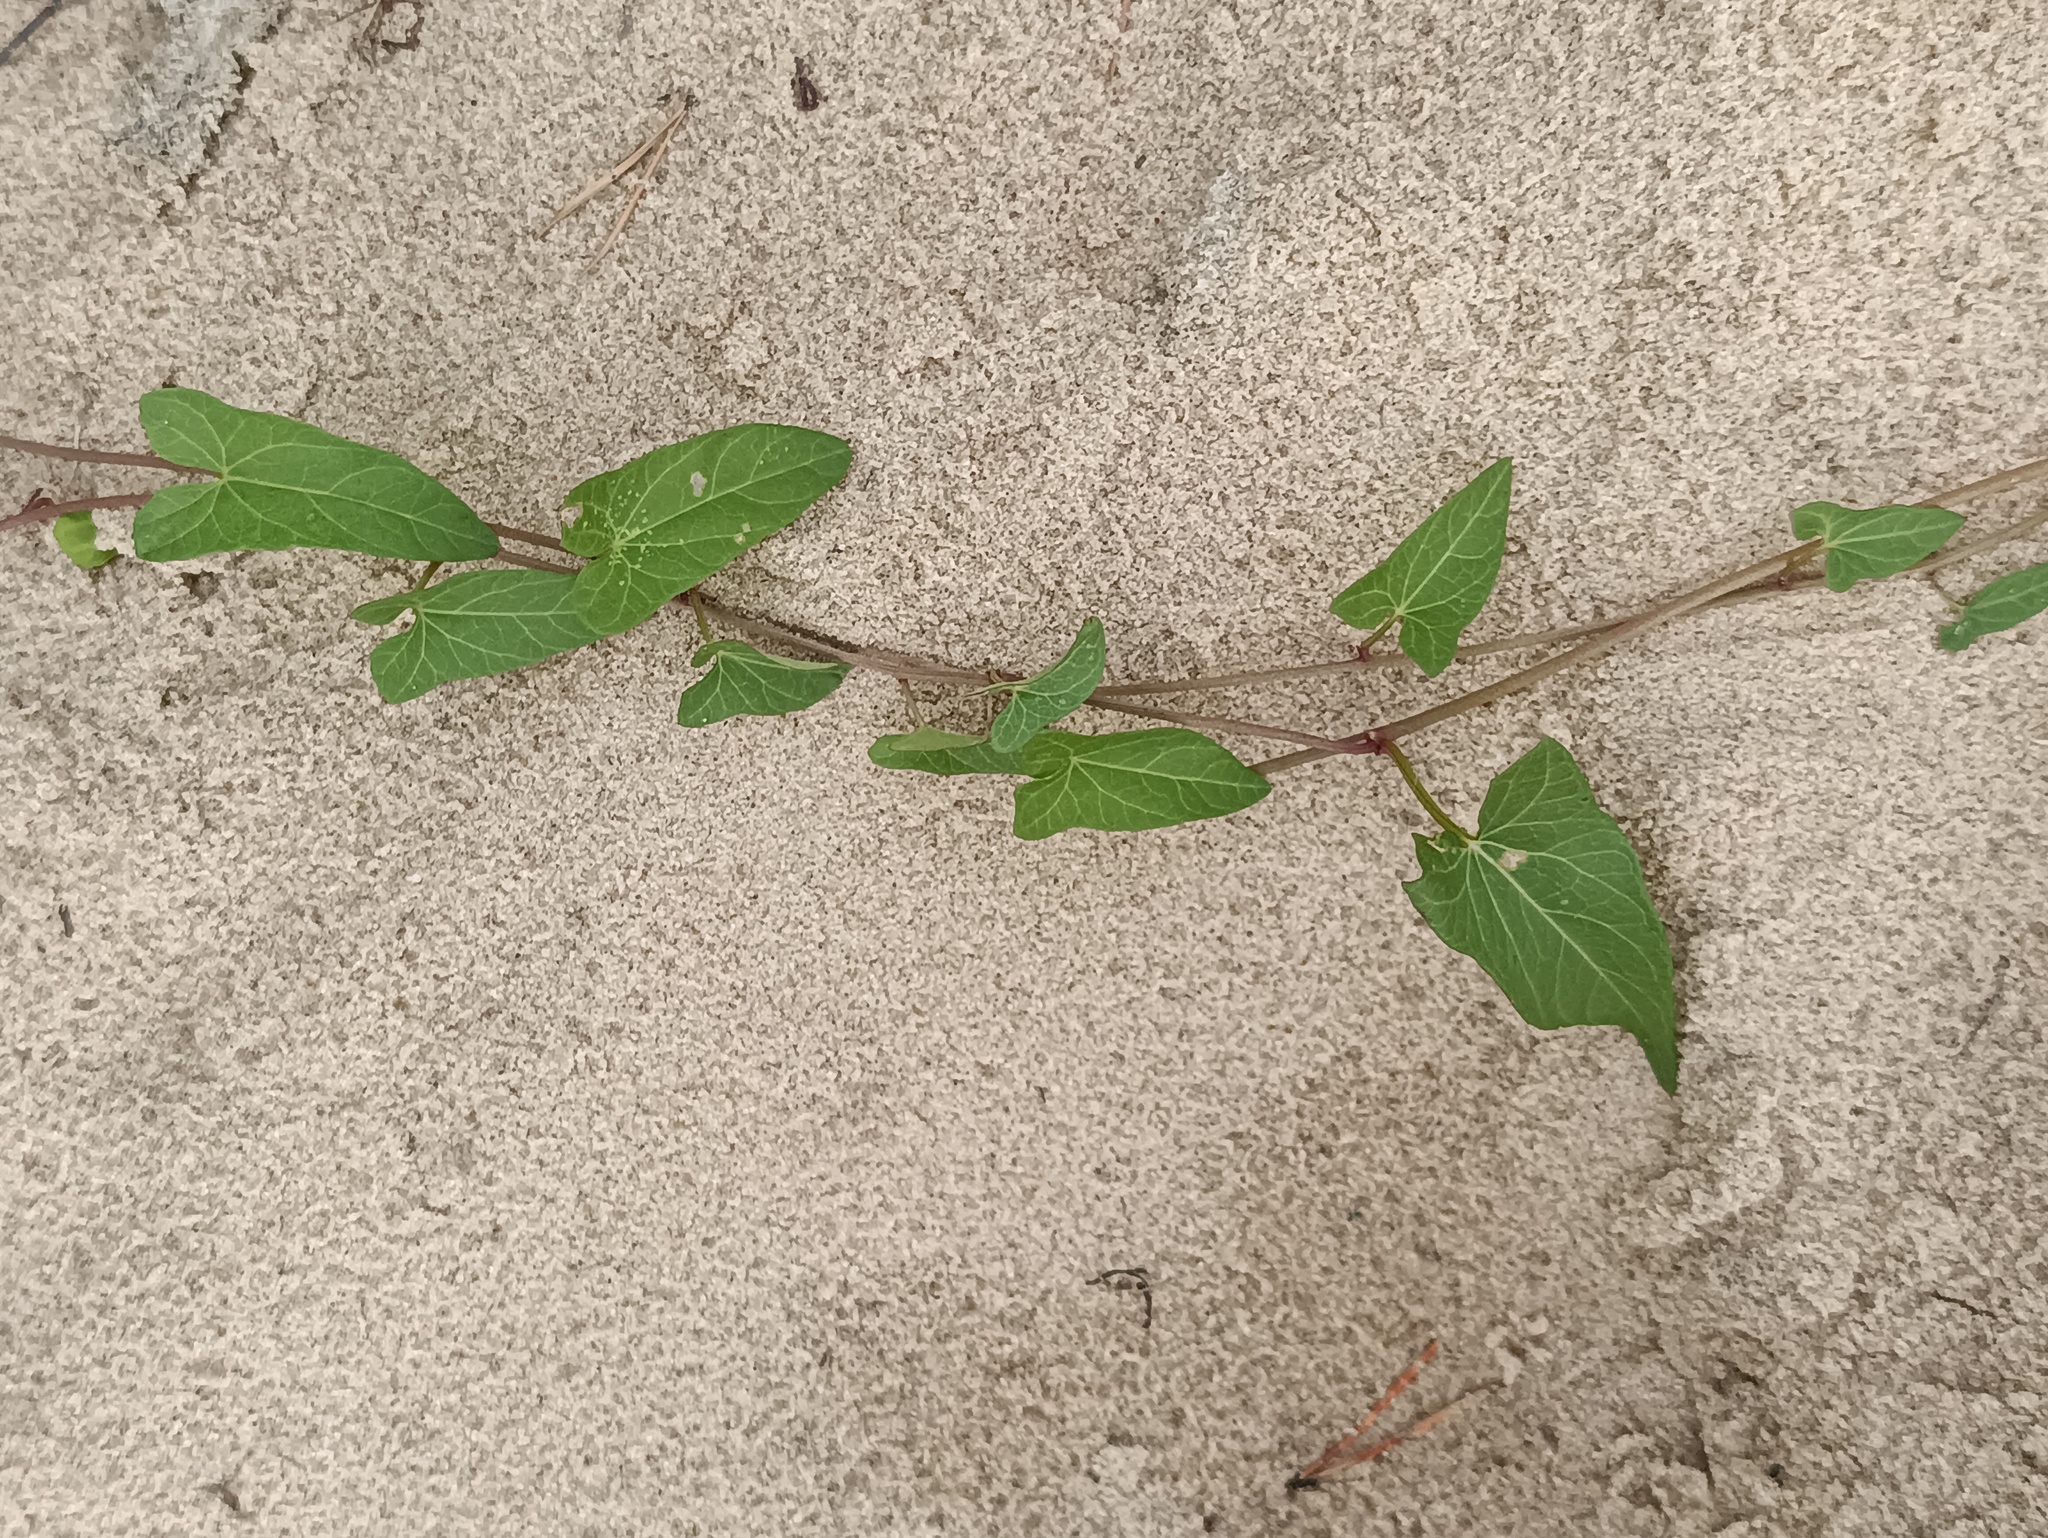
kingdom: Plantae
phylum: Tracheophyta
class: Magnoliopsida
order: Solanales
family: Convolvulaceae
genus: Convolvulus
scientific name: Convolvulus arvensis
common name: Field bindweed
